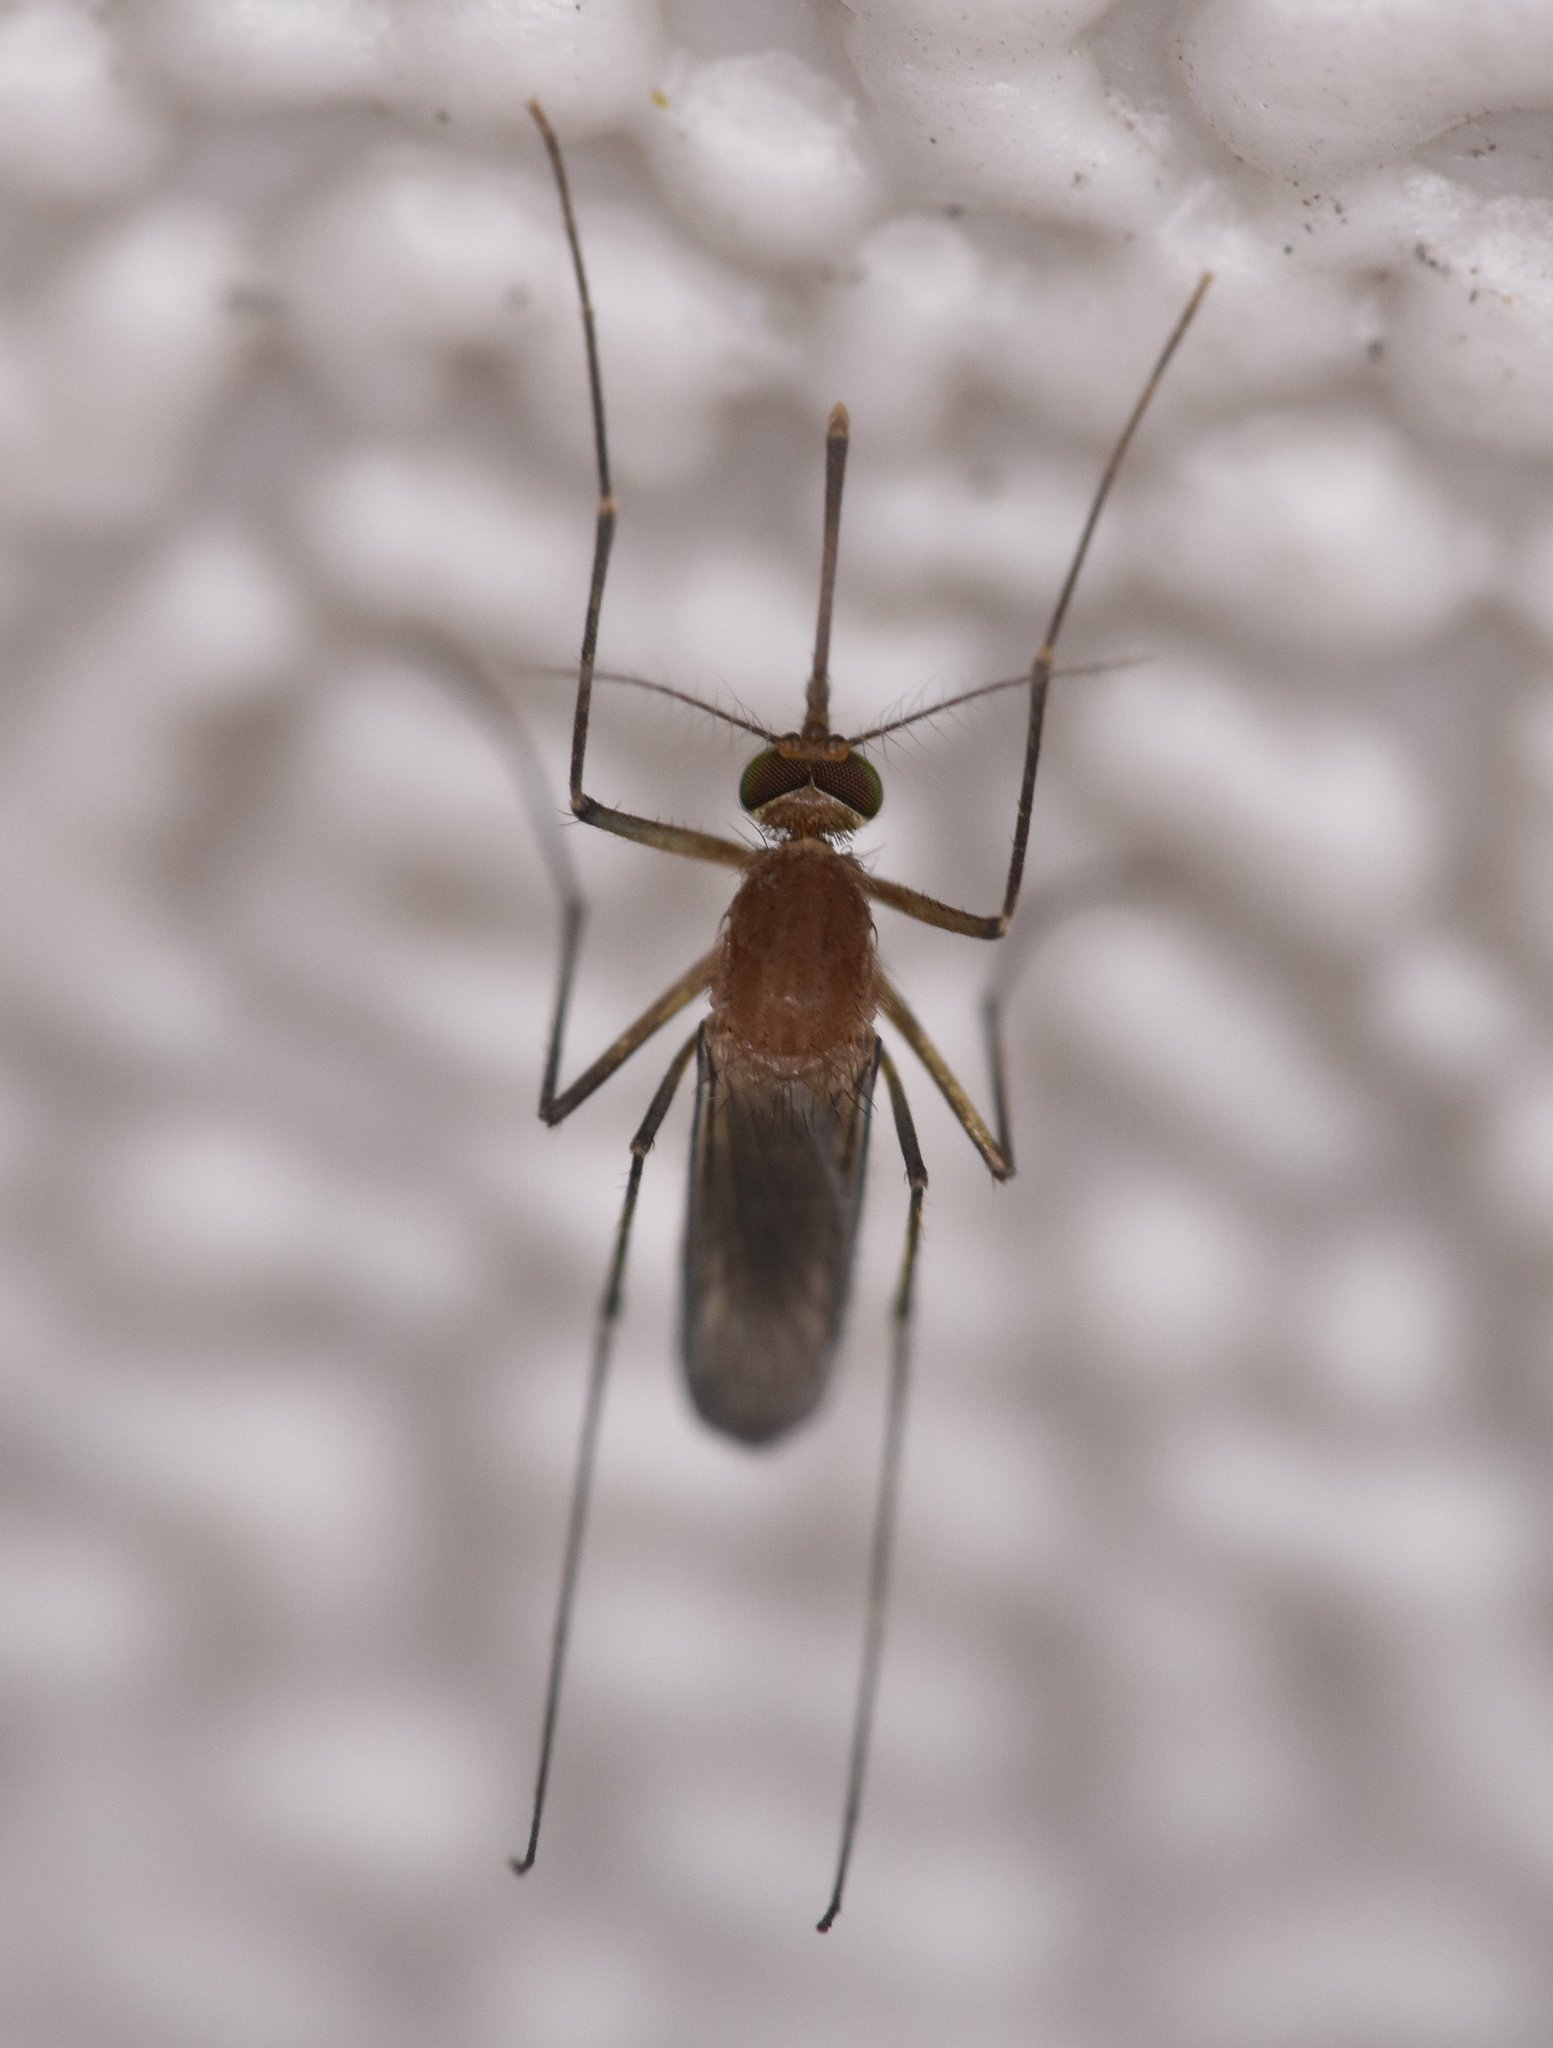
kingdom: Animalia
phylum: Arthropoda
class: Insecta
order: Diptera
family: Culicidae
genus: Culex
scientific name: Culex nigripalpus
